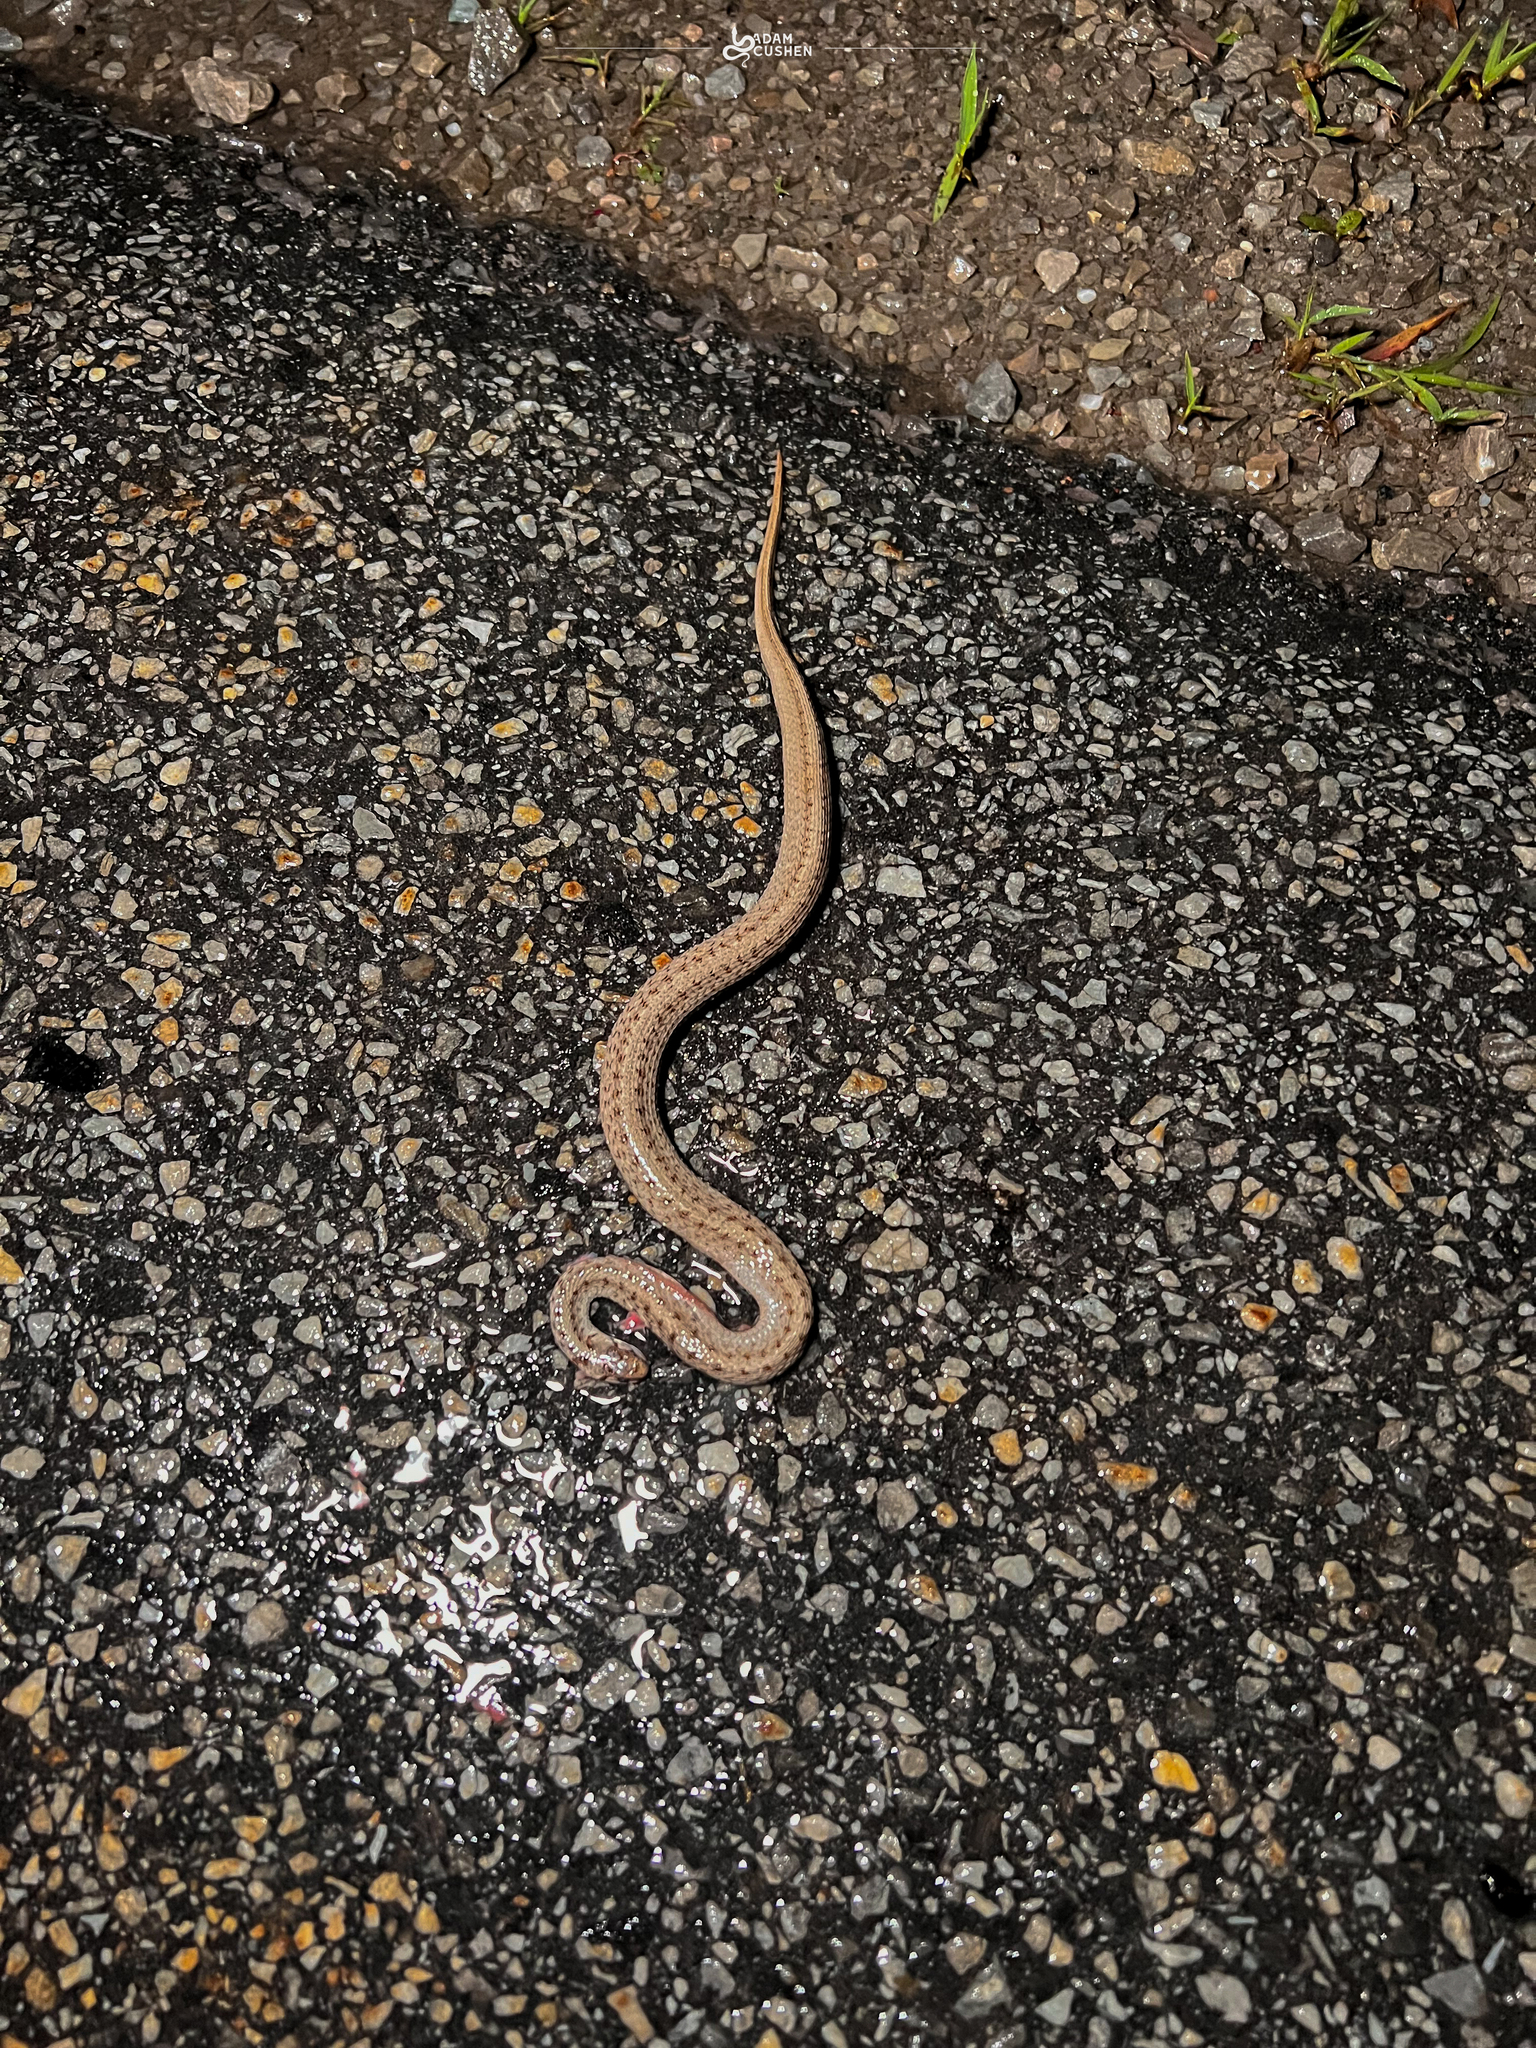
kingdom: Animalia
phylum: Chordata
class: Squamata
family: Colubridae
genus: Storeria
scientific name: Storeria dekayi
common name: (dekay’s) brown snake
